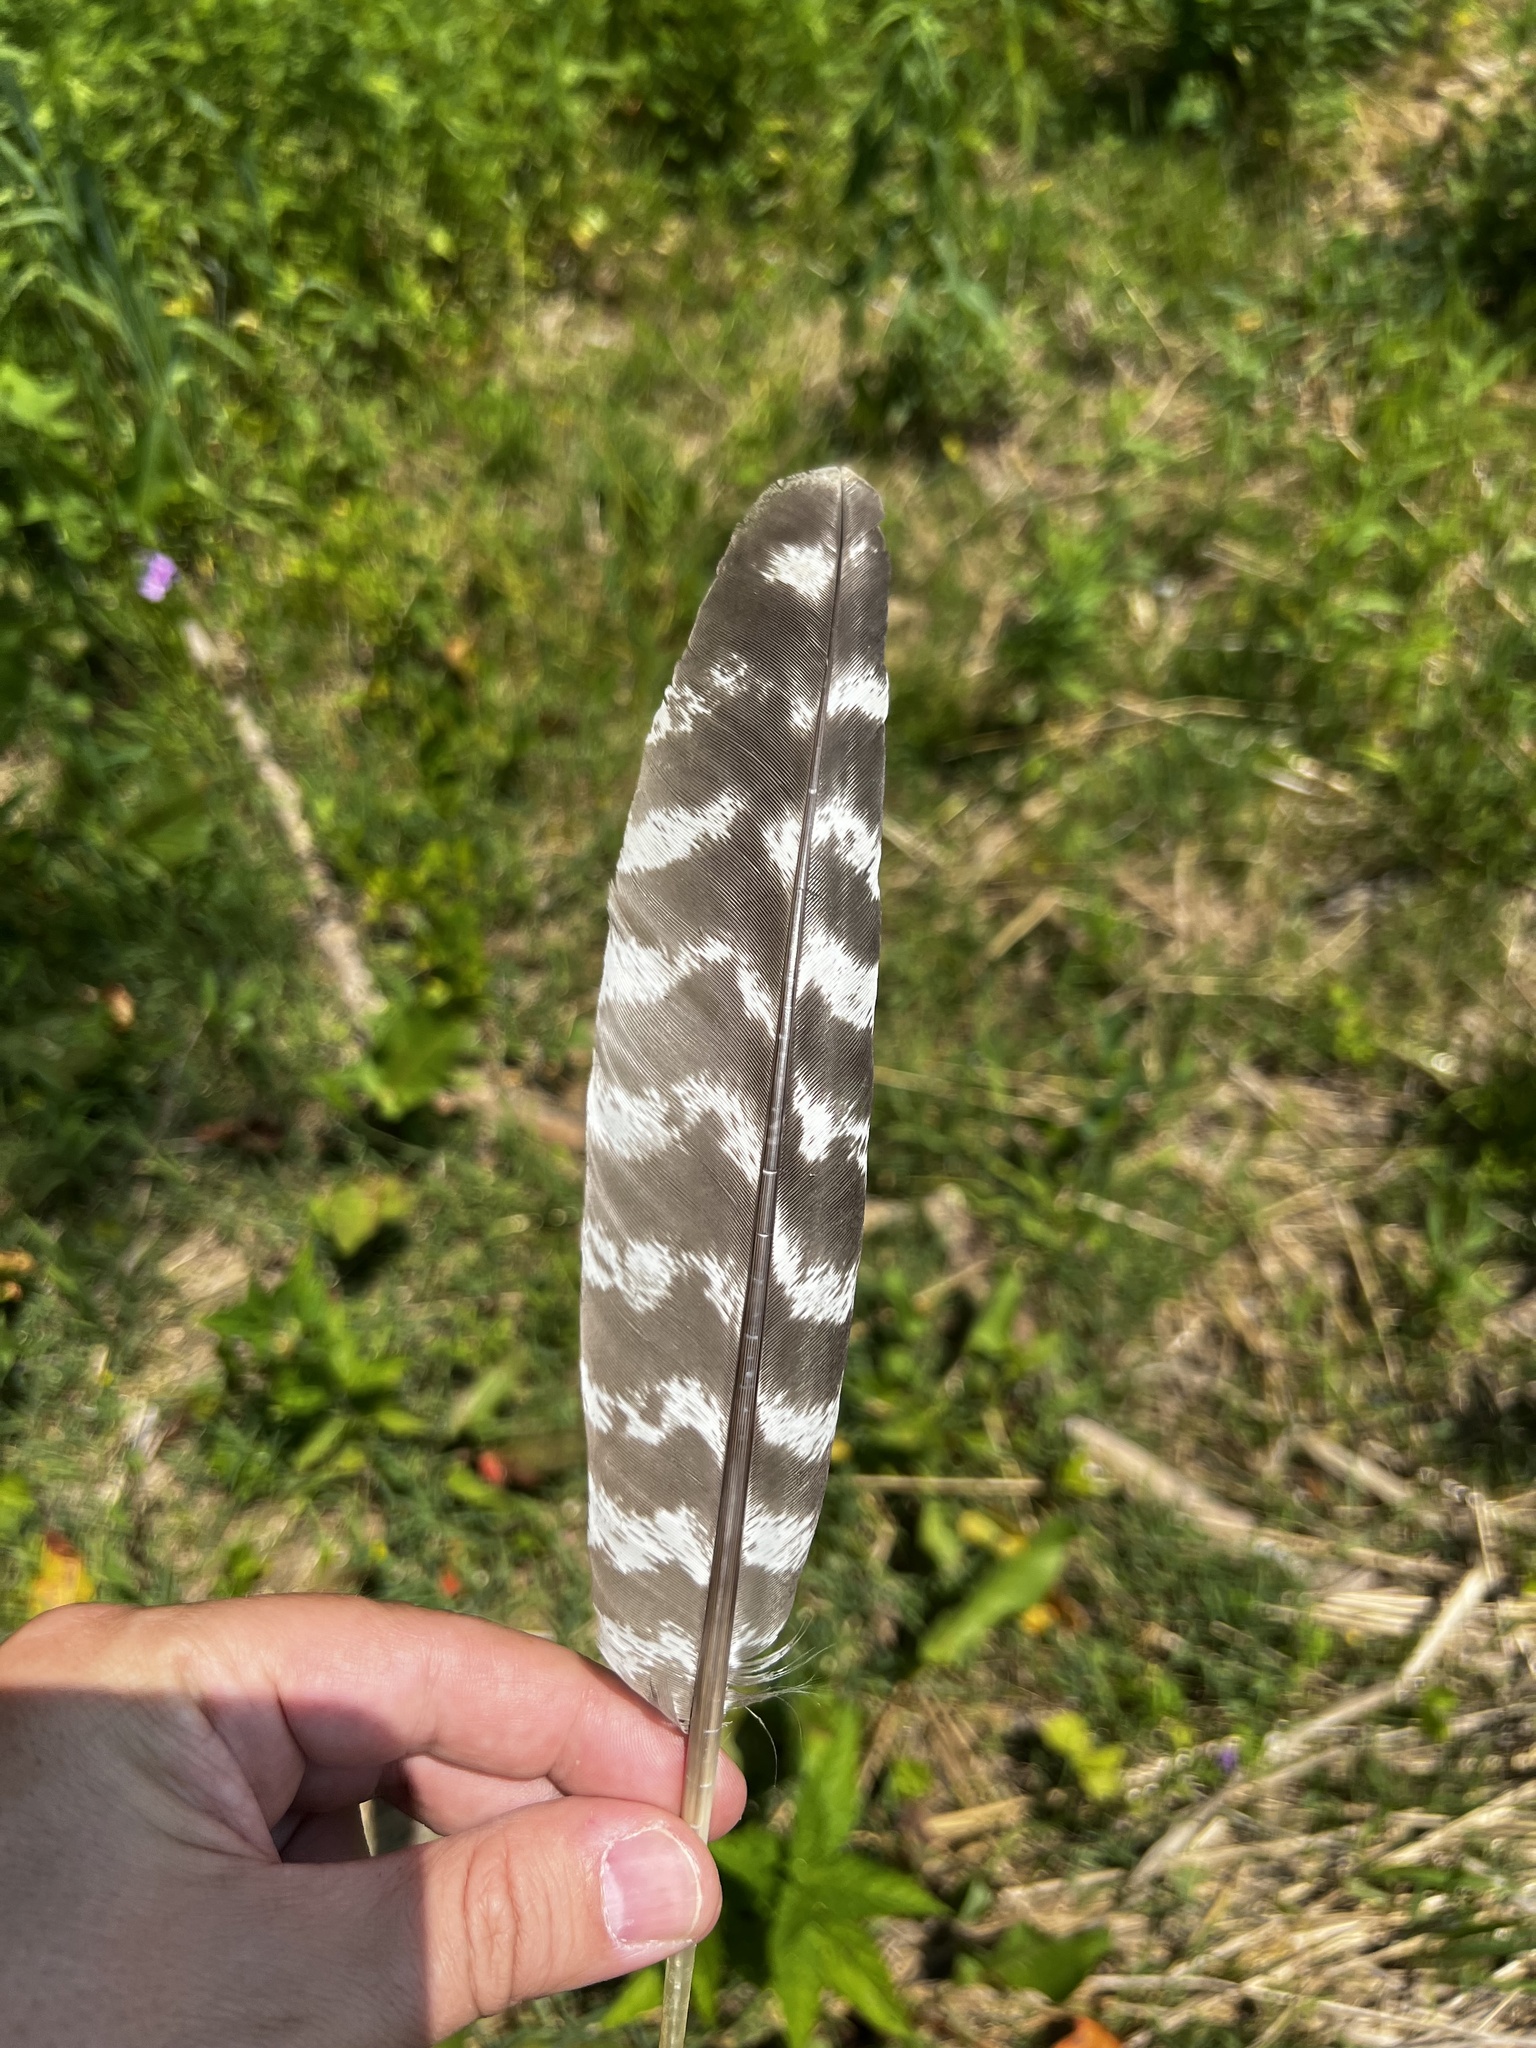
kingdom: Animalia
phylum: Chordata
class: Aves
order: Galliformes
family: Phasianidae
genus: Meleagris
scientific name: Meleagris gallopavo
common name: Wild turkey
